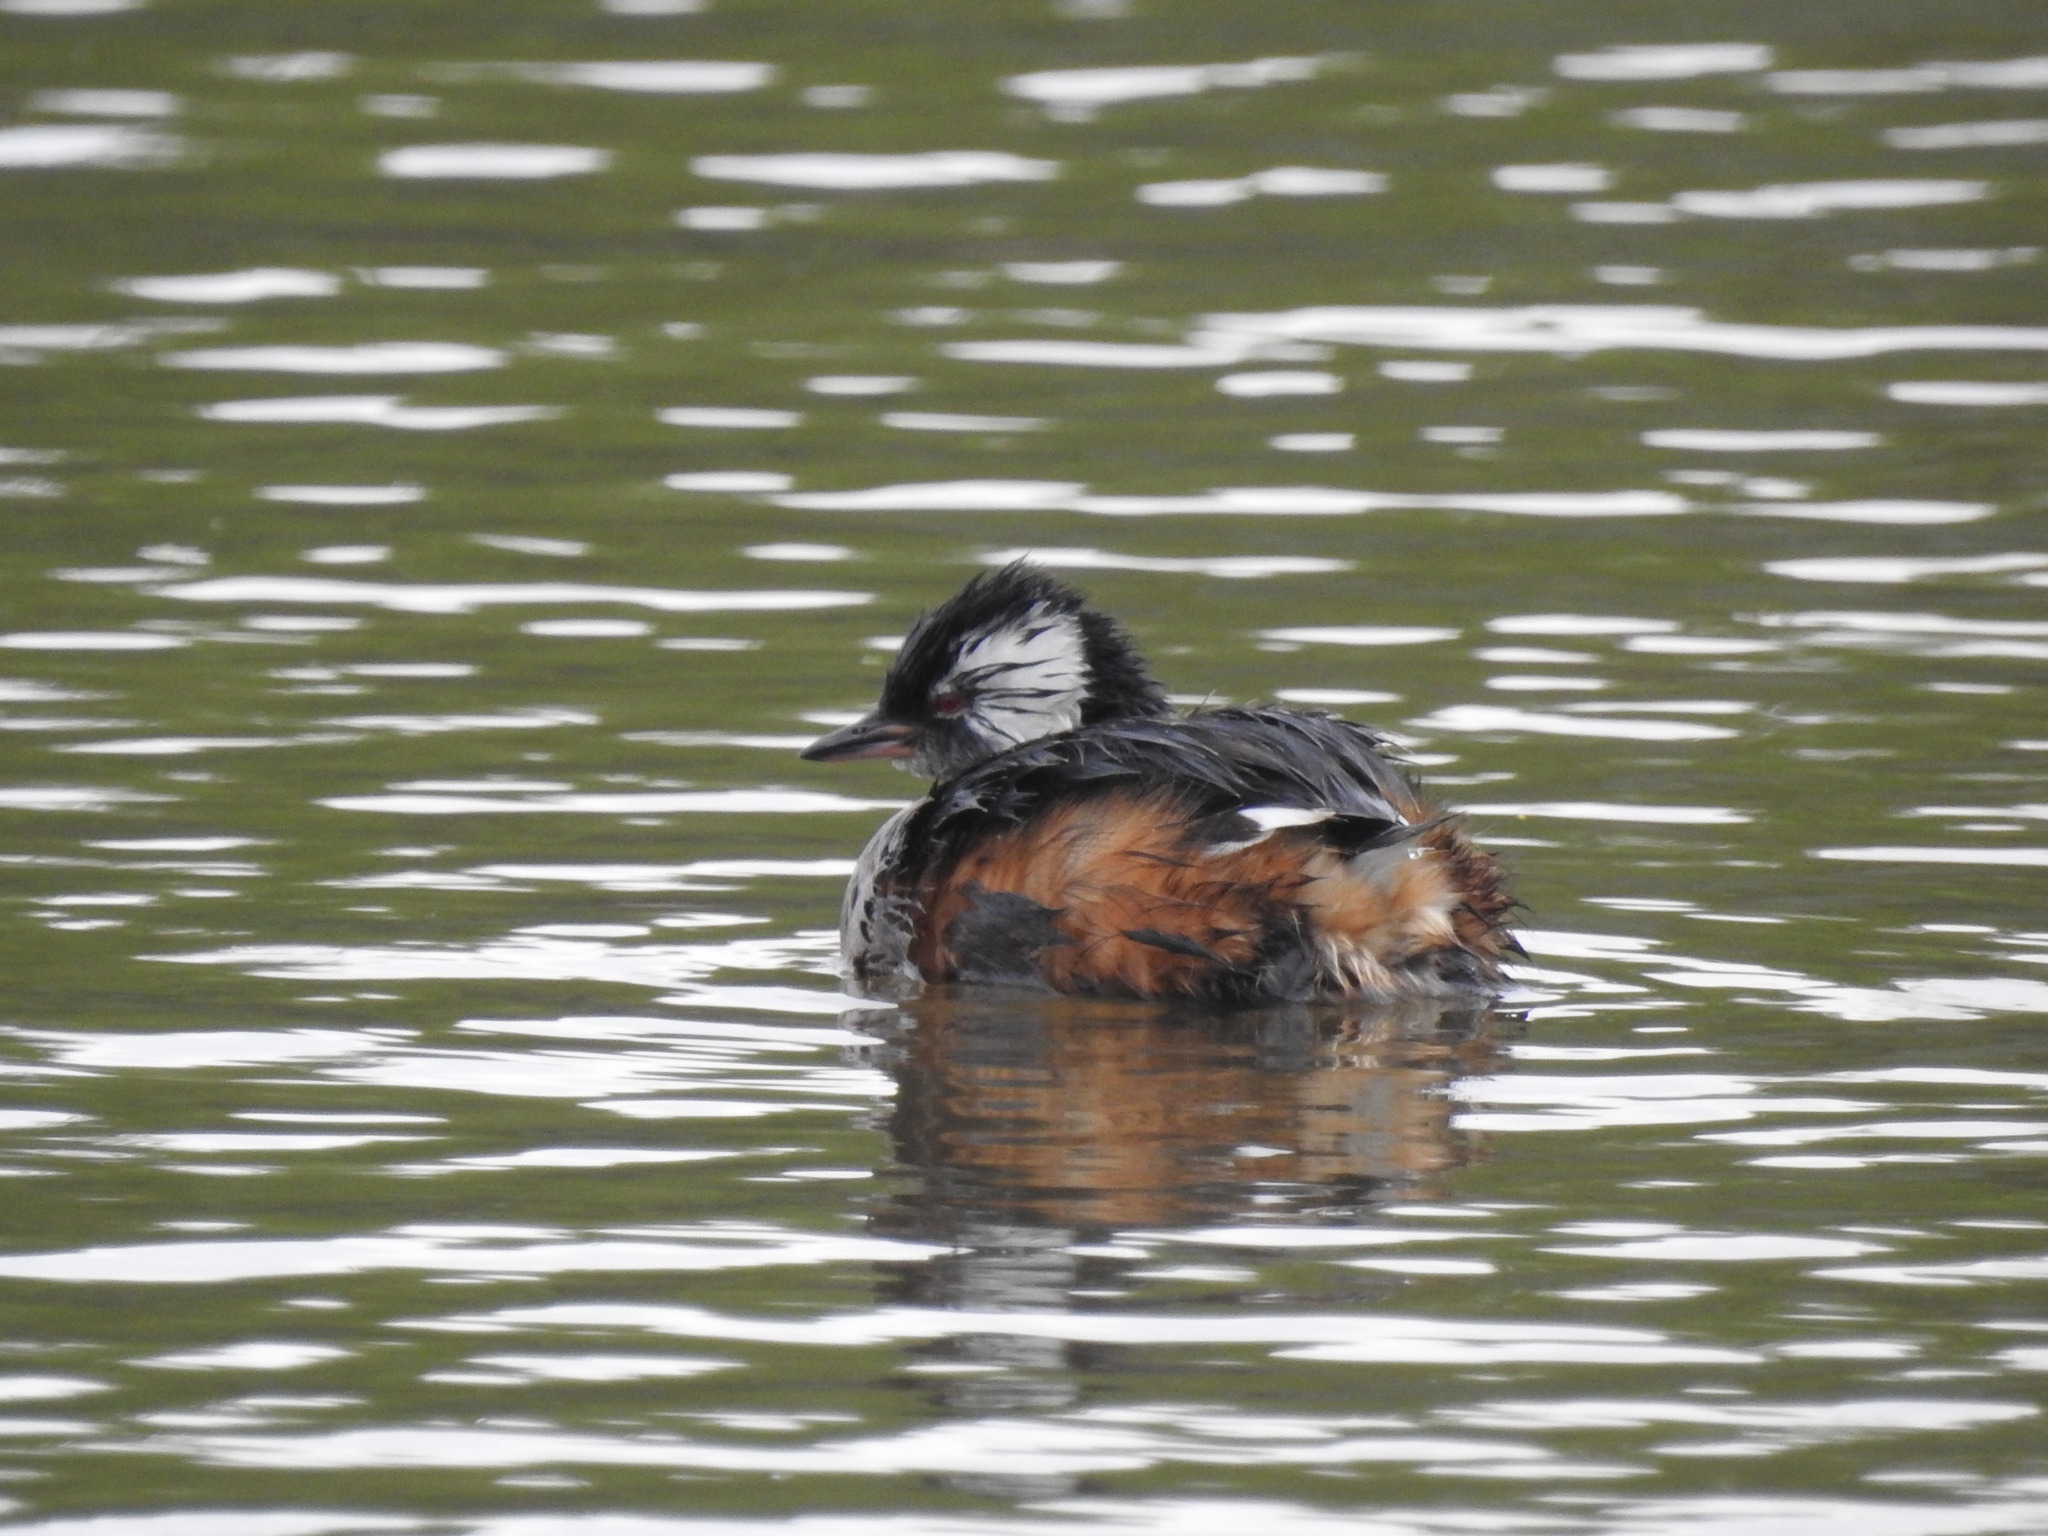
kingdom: Animalia
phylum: Chordata
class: Aves
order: Podicipediformes
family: Podicipedidae
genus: Rollandia
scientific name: Rollandia rolland
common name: White-tufted grebe
